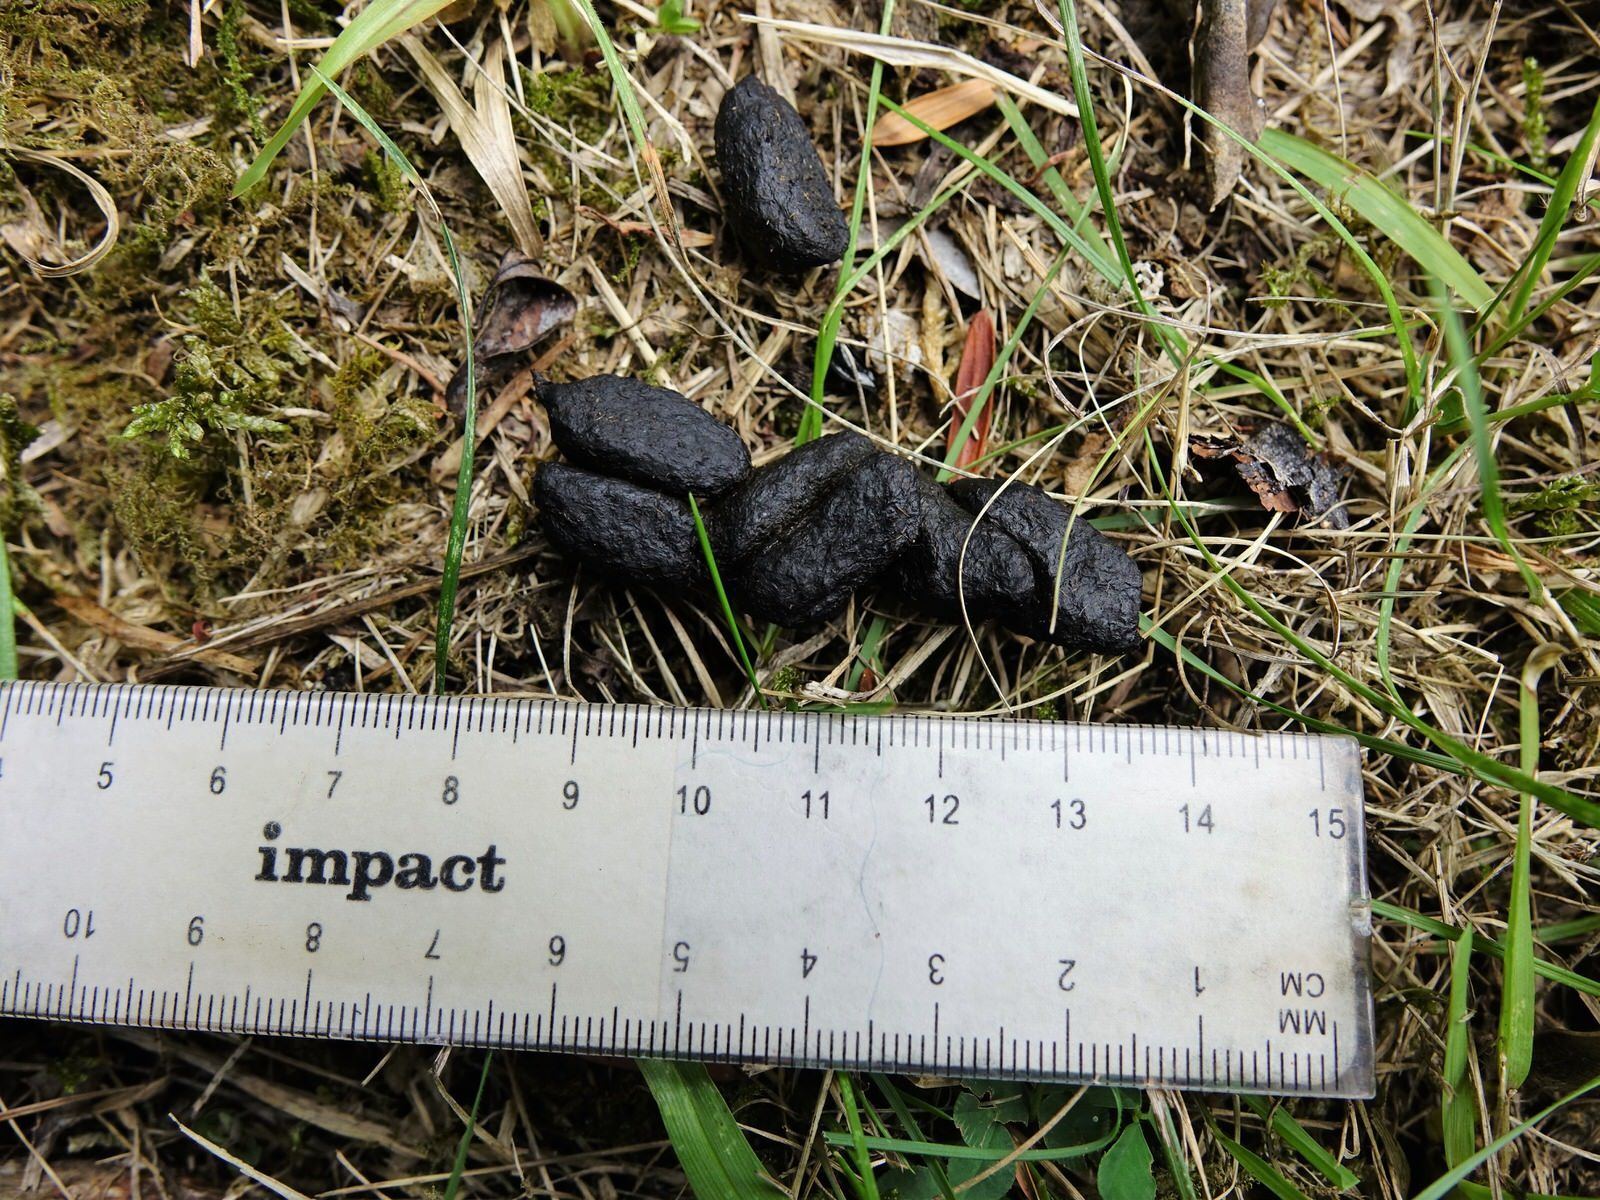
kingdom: Animalia
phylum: Chordata
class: Mammalia
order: Diprotodontia
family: Phalangeridae
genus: Trichosurus
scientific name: Trichosurus vulpecula
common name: Common brushtail
